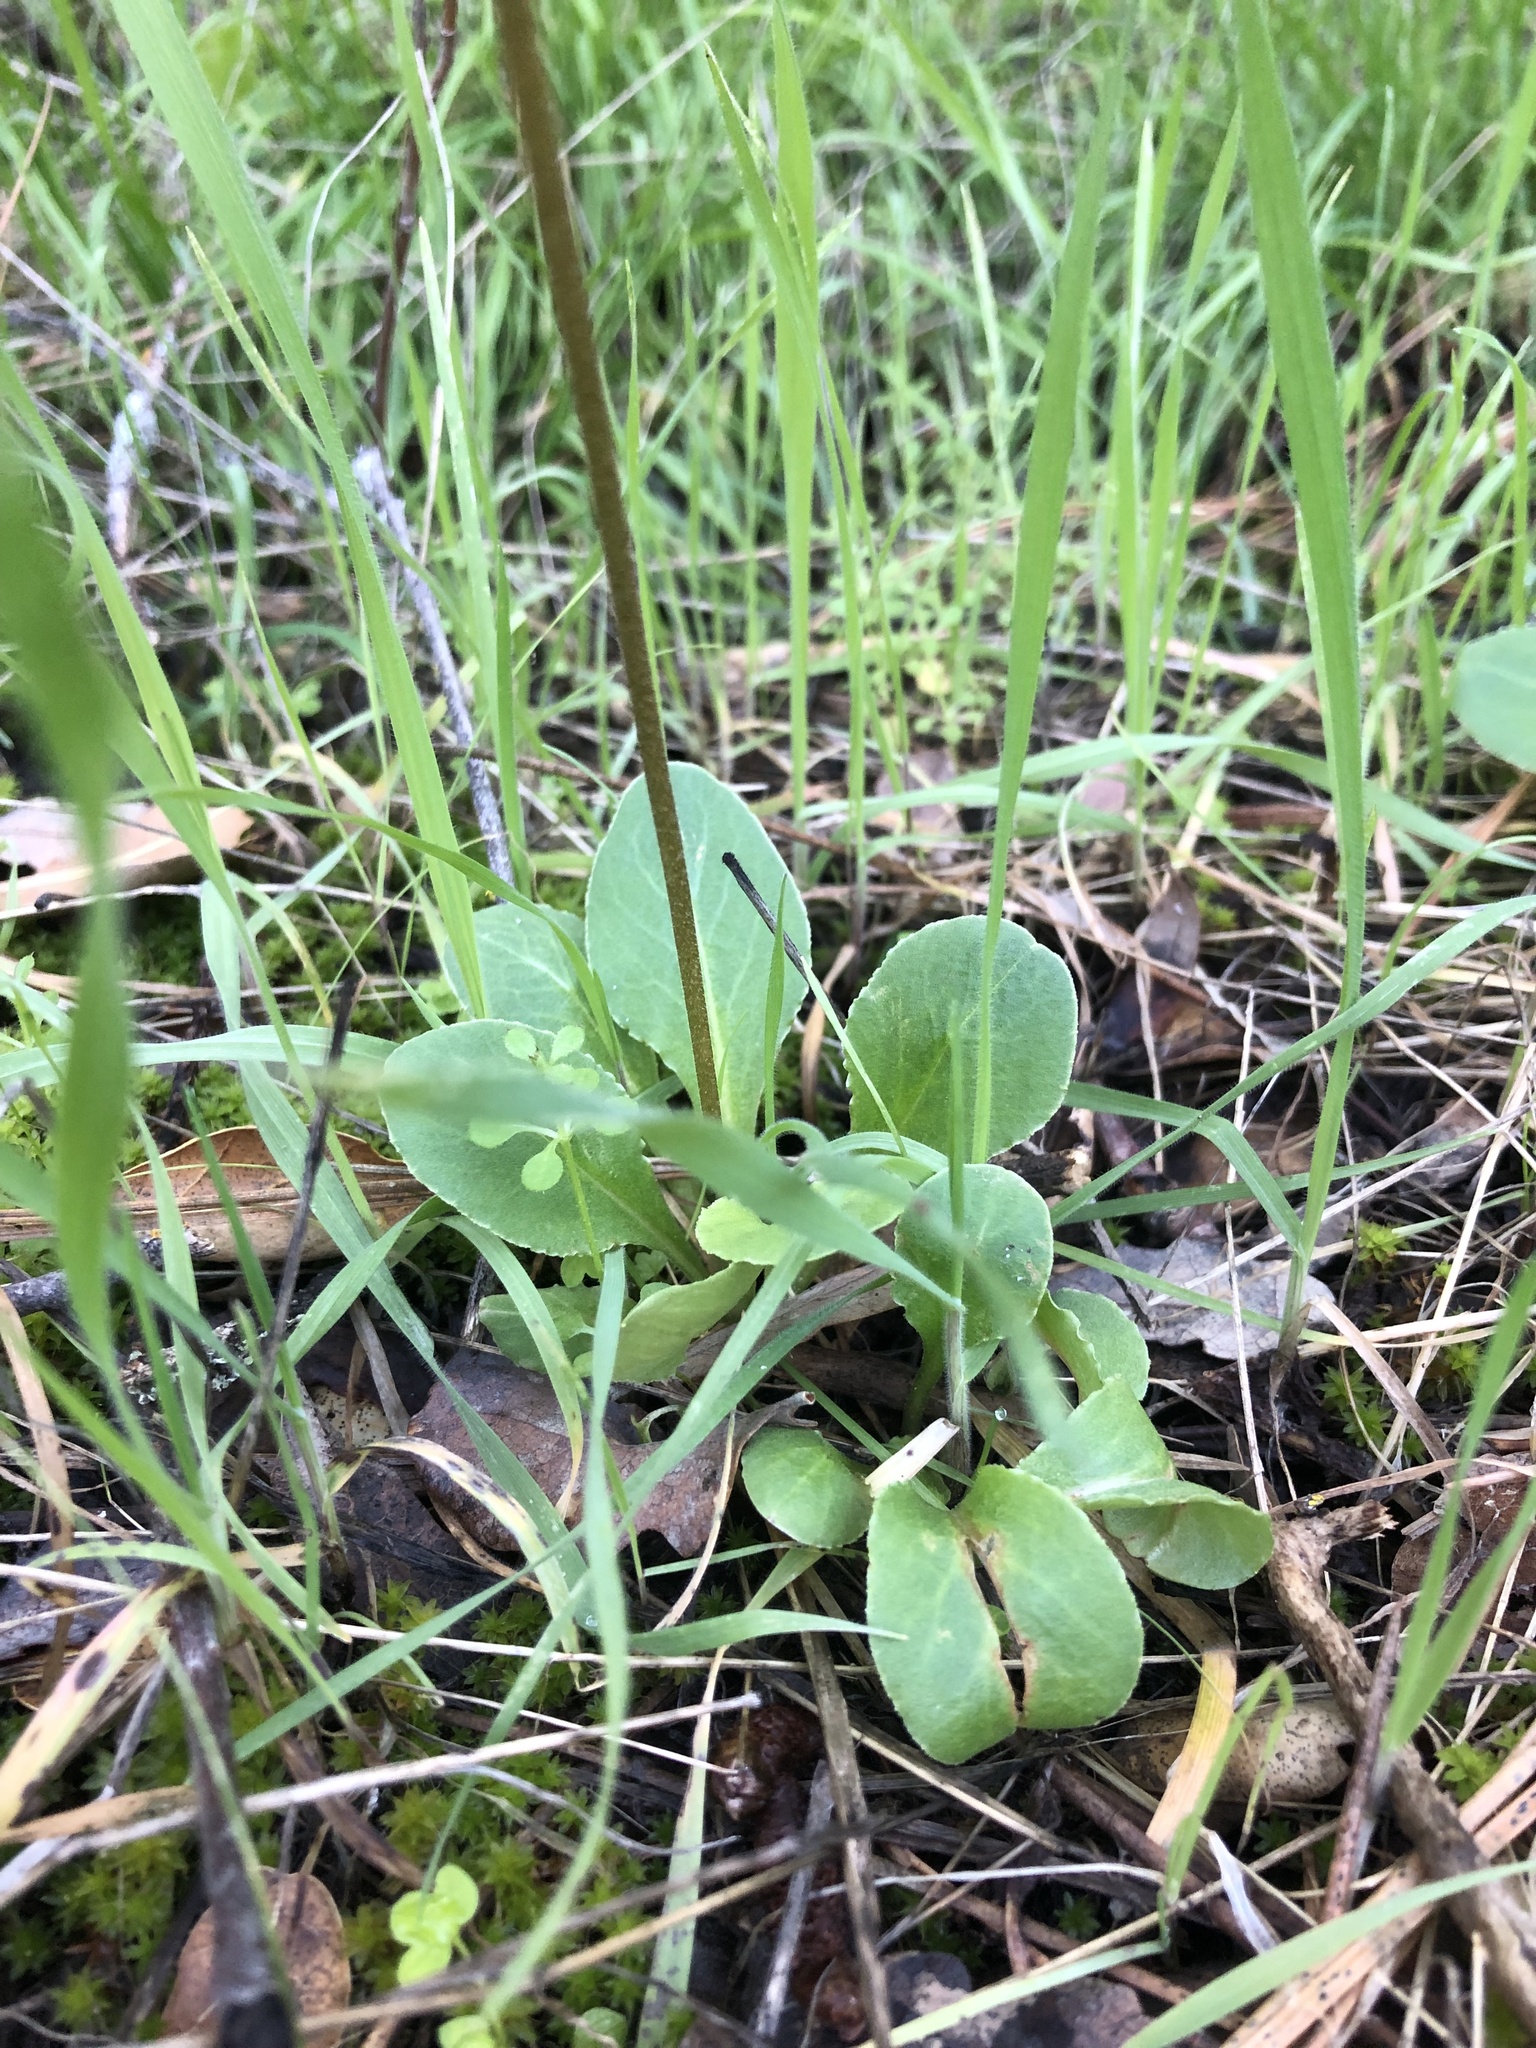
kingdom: Plantae
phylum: Tracheophyta
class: Magnoliopsida
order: Ericales
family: Primulaceae
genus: Dodecatheon
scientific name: Dodecatheon hendersonii
